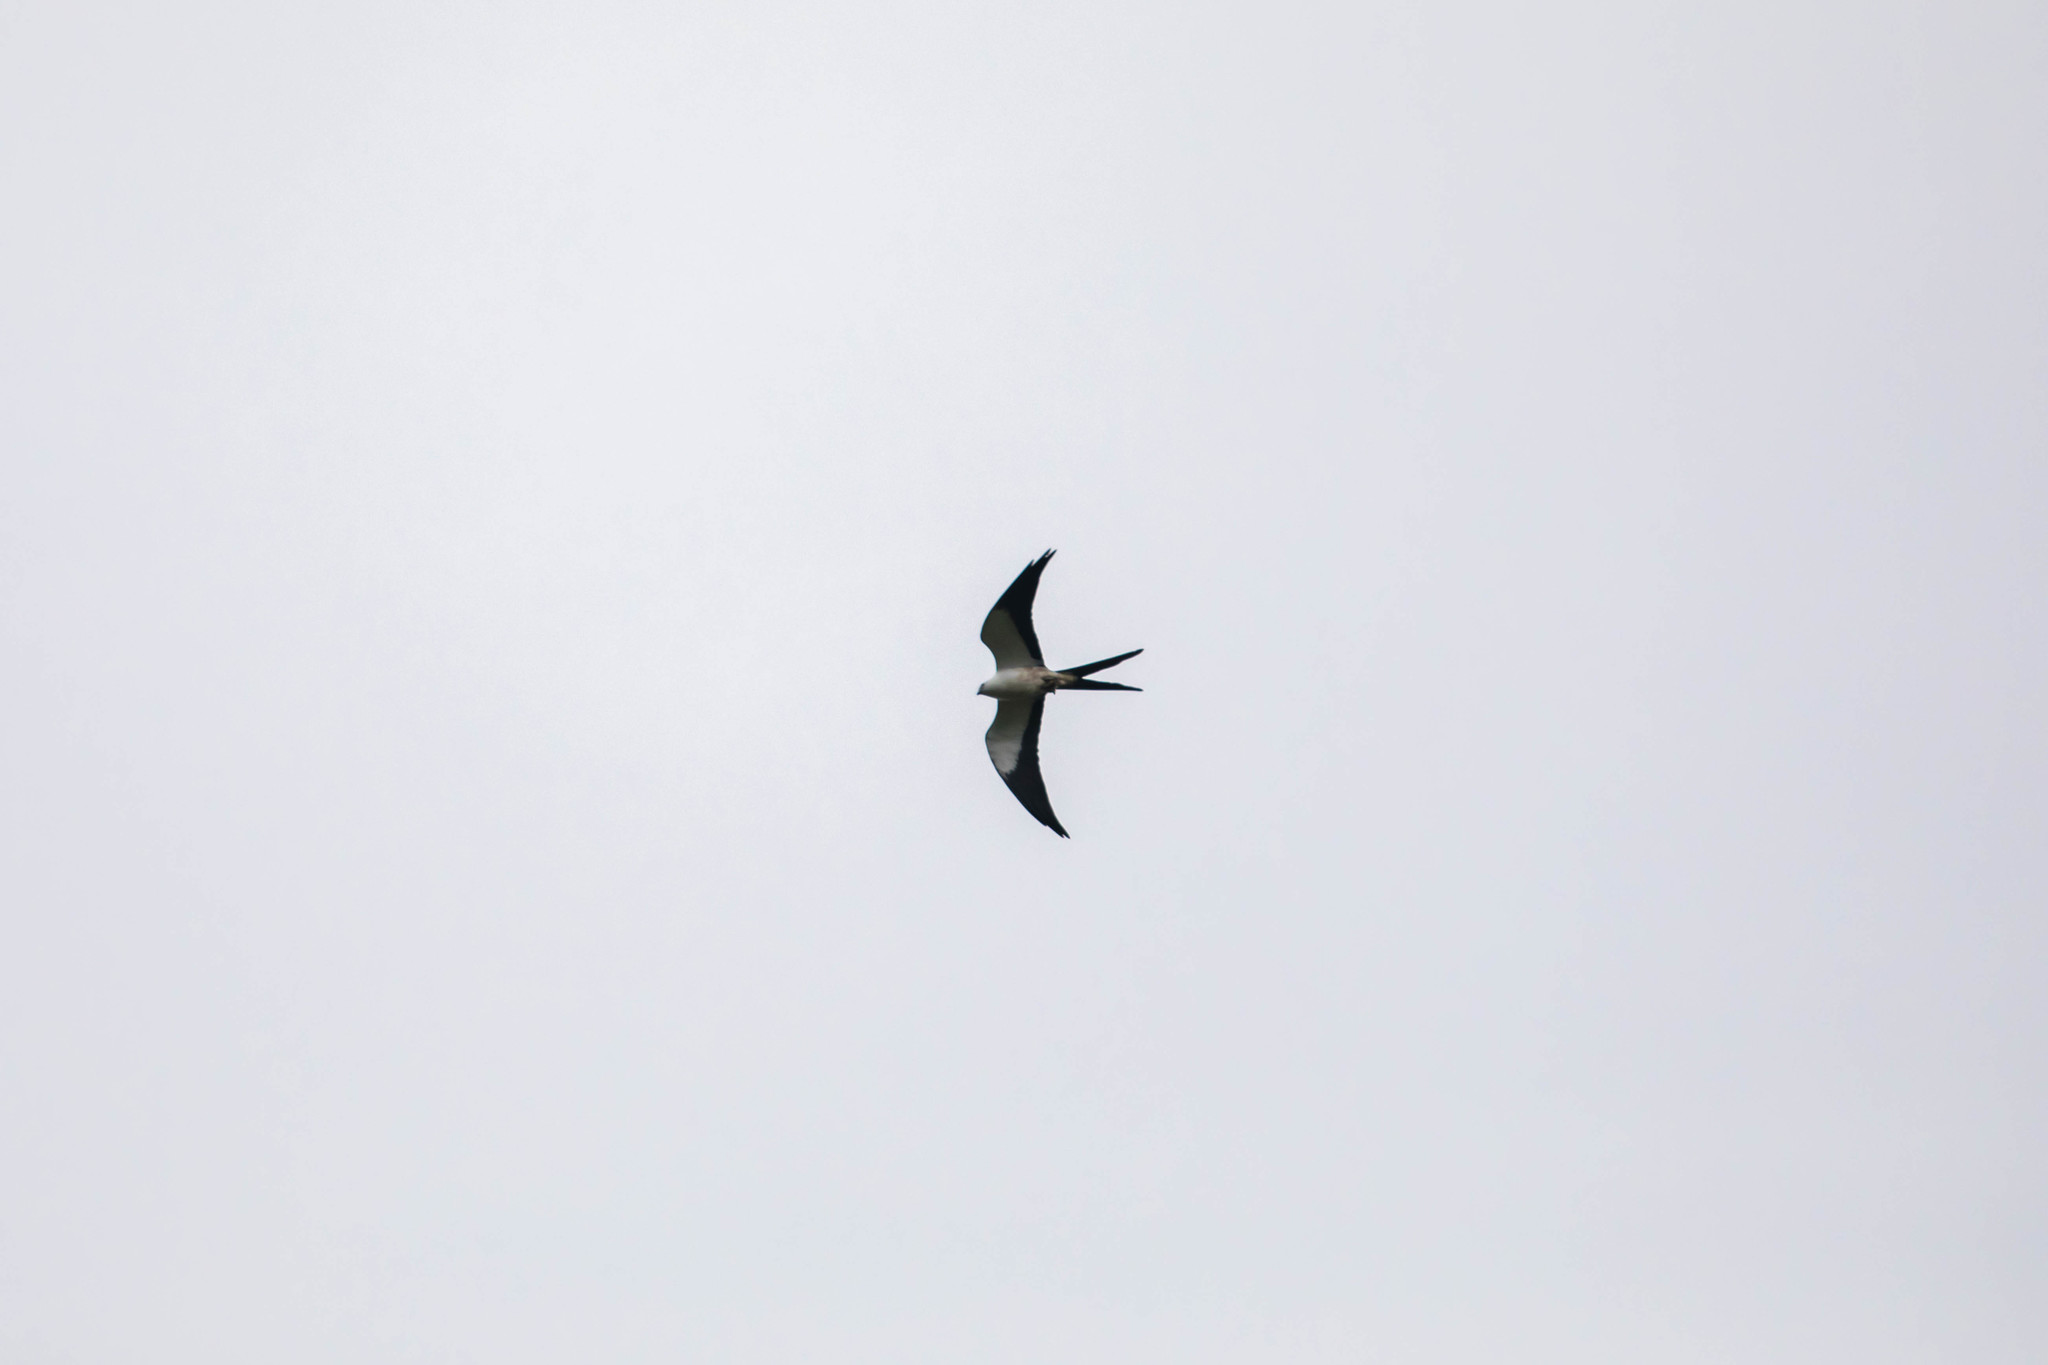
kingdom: Animalia
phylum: Chordata
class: Aves
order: Accipitriformes
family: Accipitridae
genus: Elanoides
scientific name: Elanoides forficatus
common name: Swallow-tailed kite
